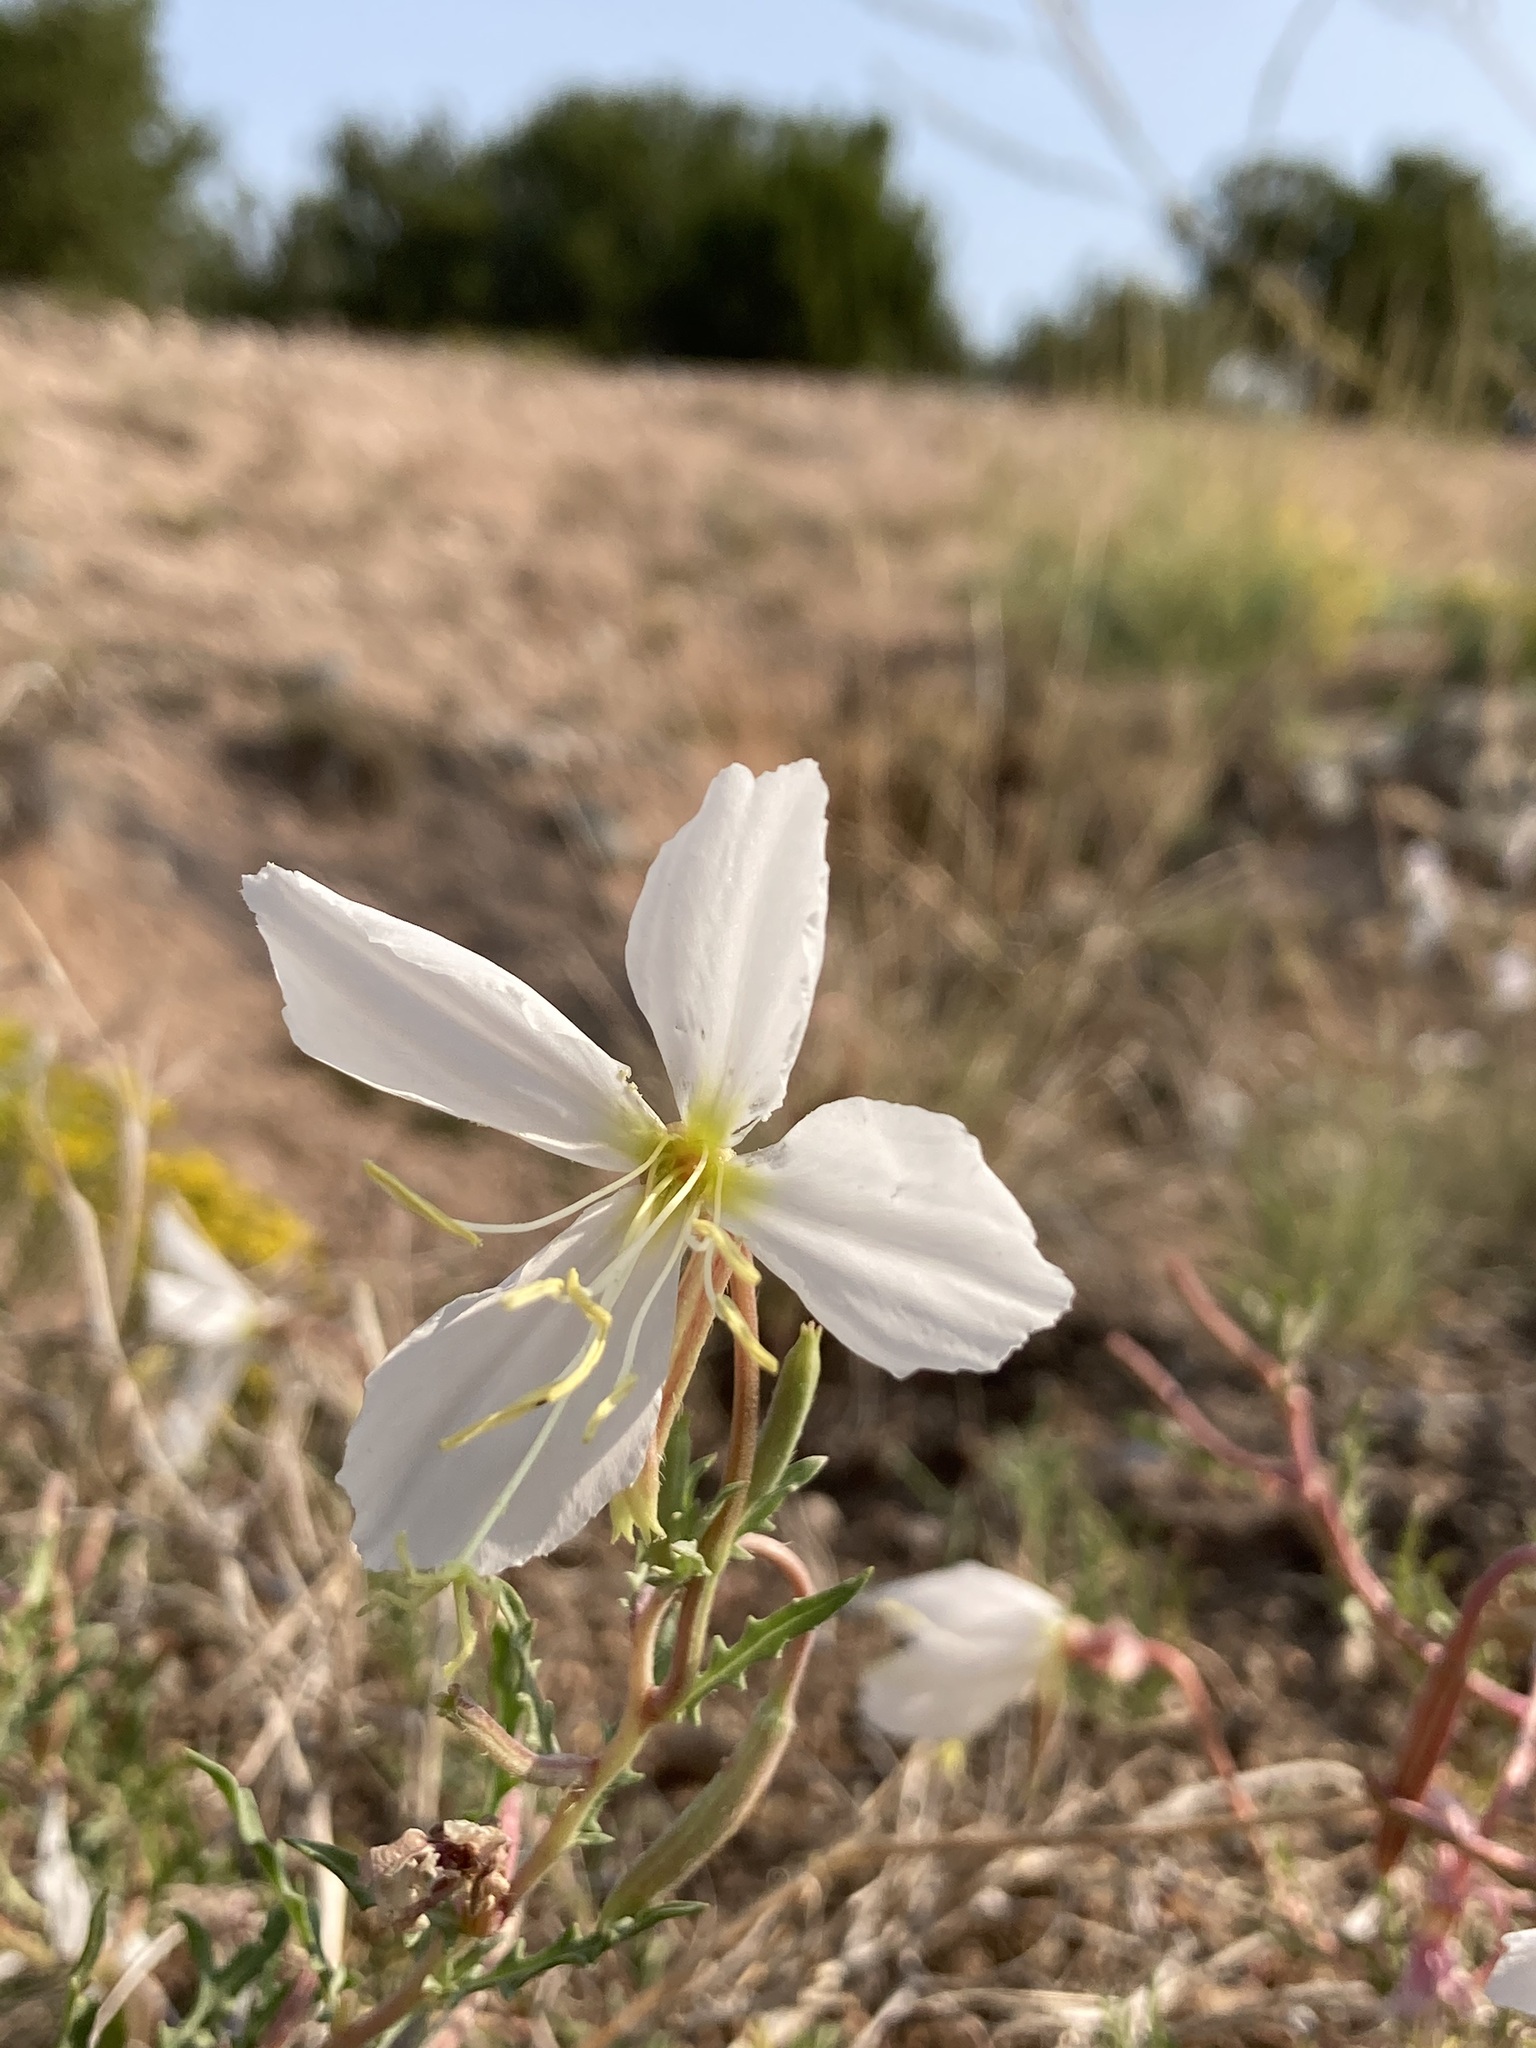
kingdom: Plantae
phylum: Tracheophyta
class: Magnoliopsida
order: Myrtales
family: Onagraceae
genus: Oenothera
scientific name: Oenothera pallida
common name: Pale evening-primrose
